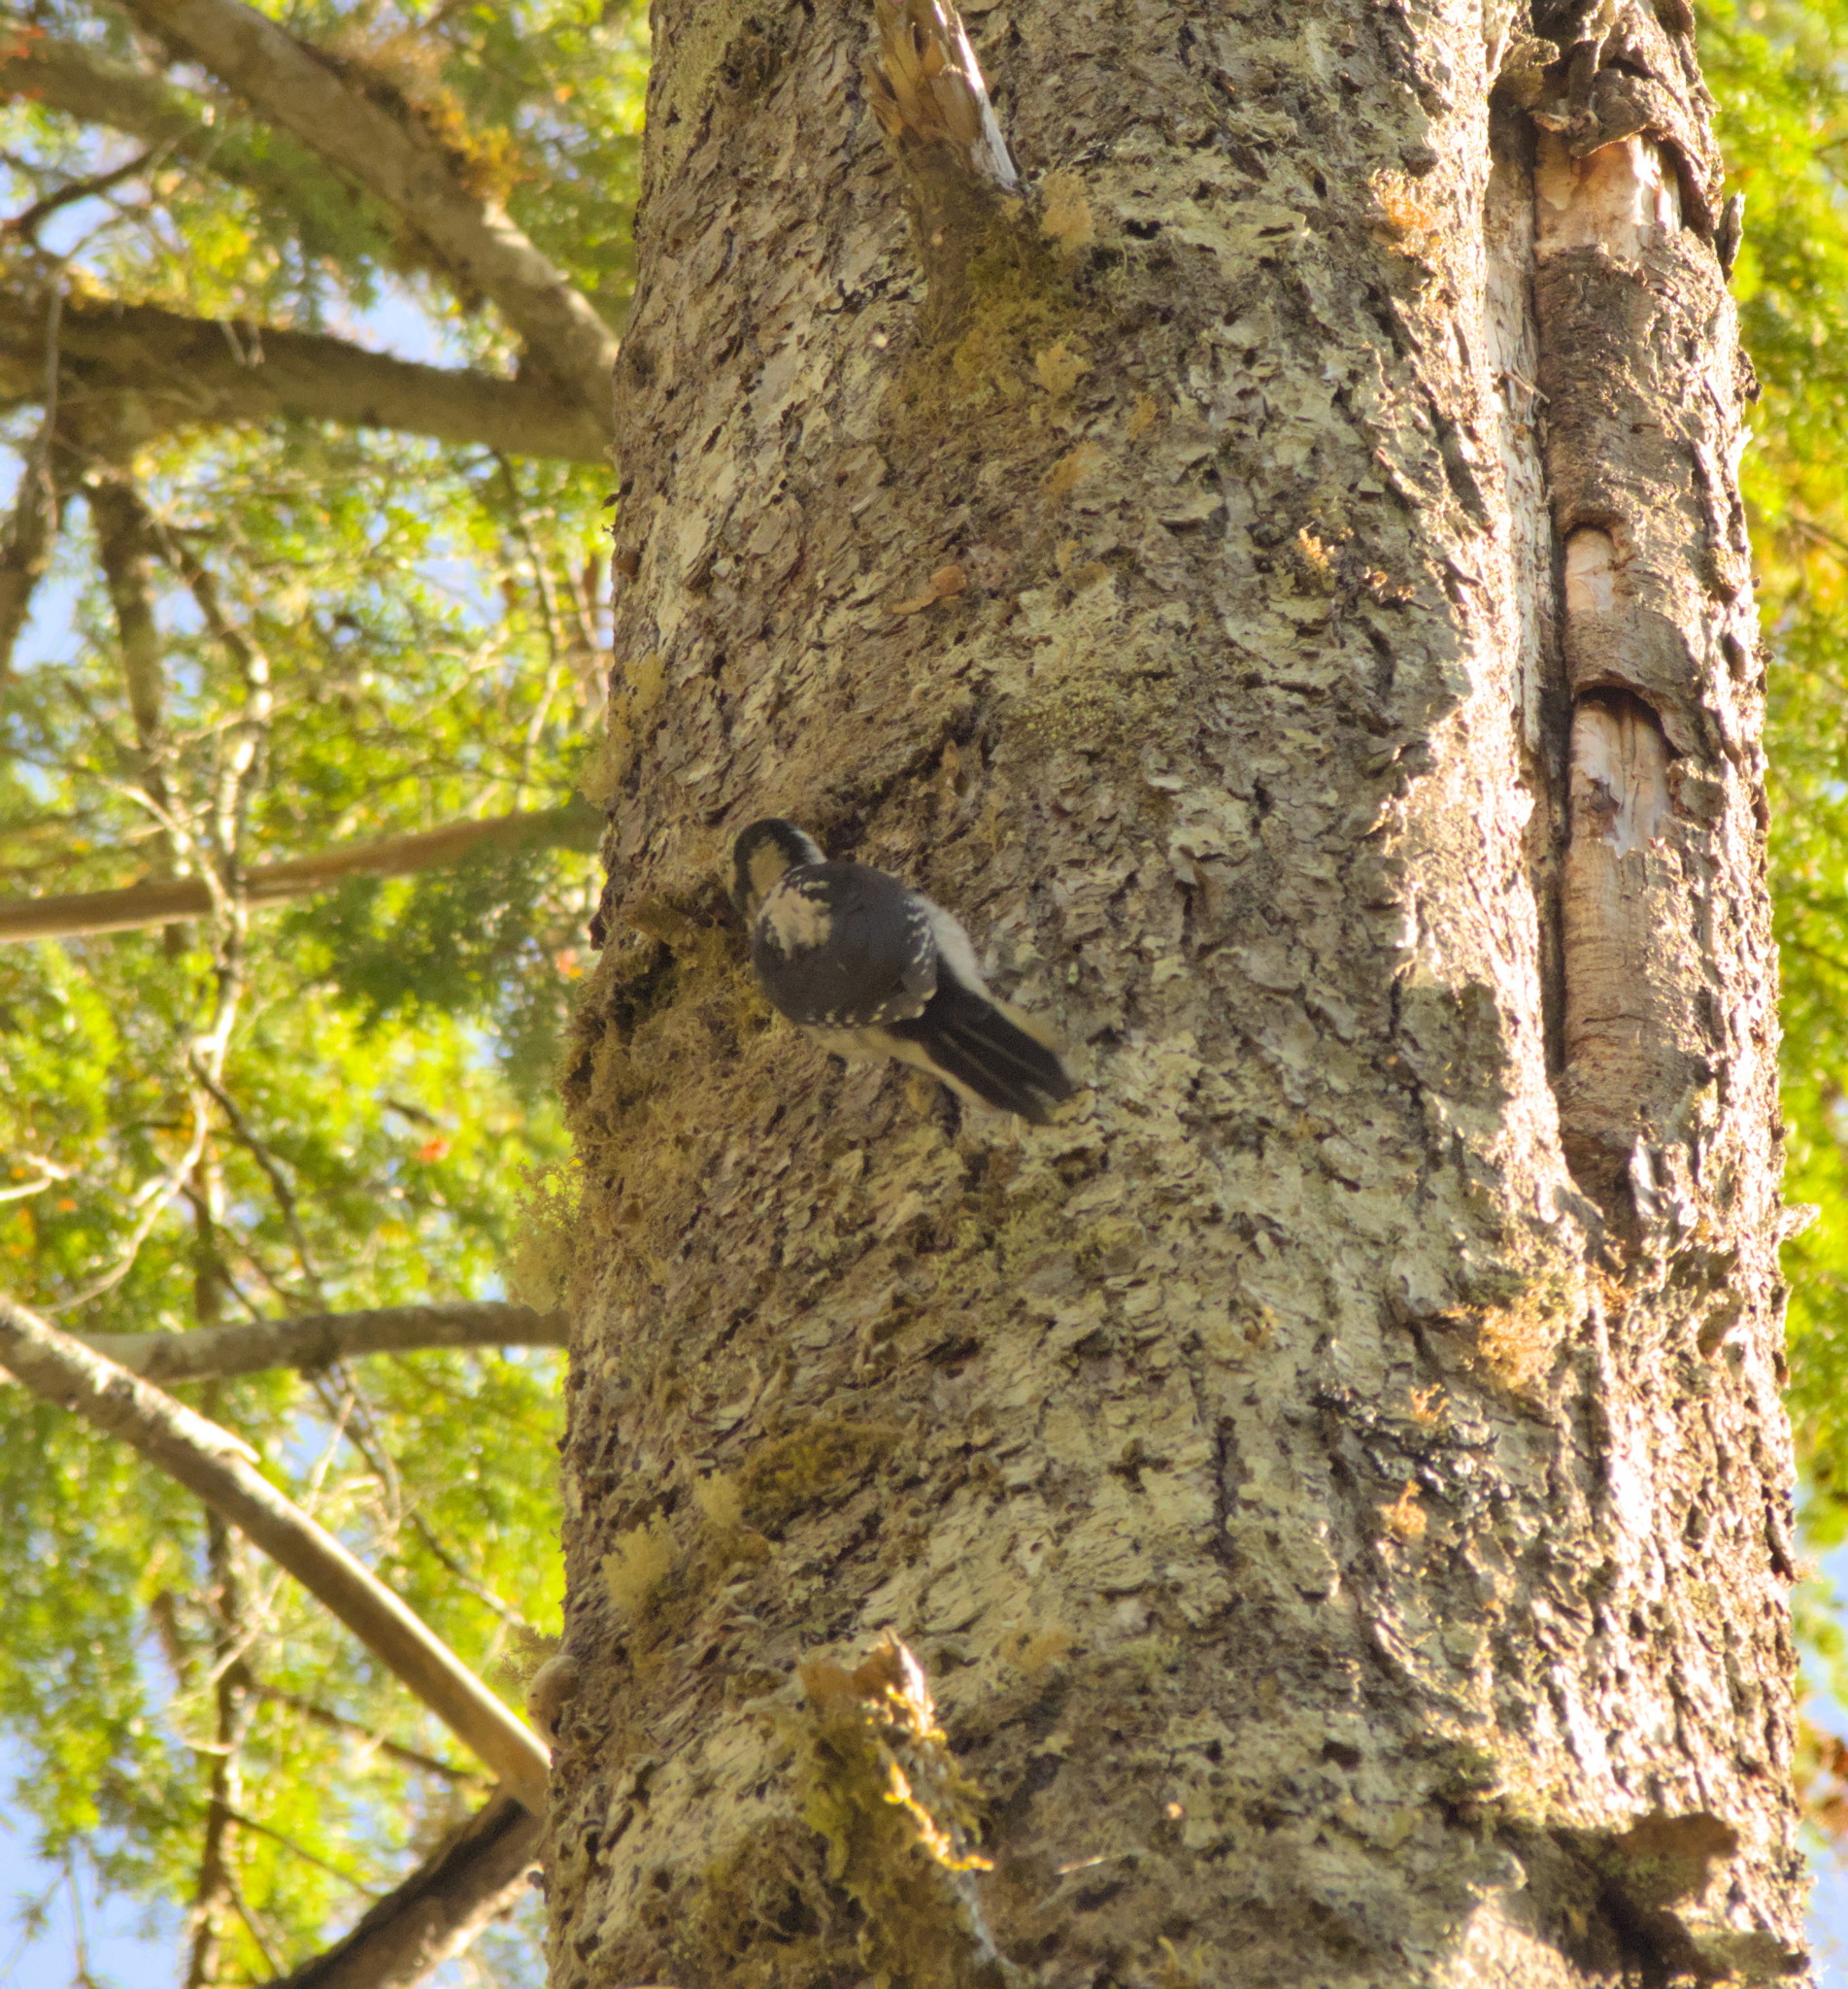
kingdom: Animalia
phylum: Chordata
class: Aves
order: Piciformes
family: Picidae
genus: Leuconotopicus
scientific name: Leuconotopicus villosus
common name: Hairy woodpecker
